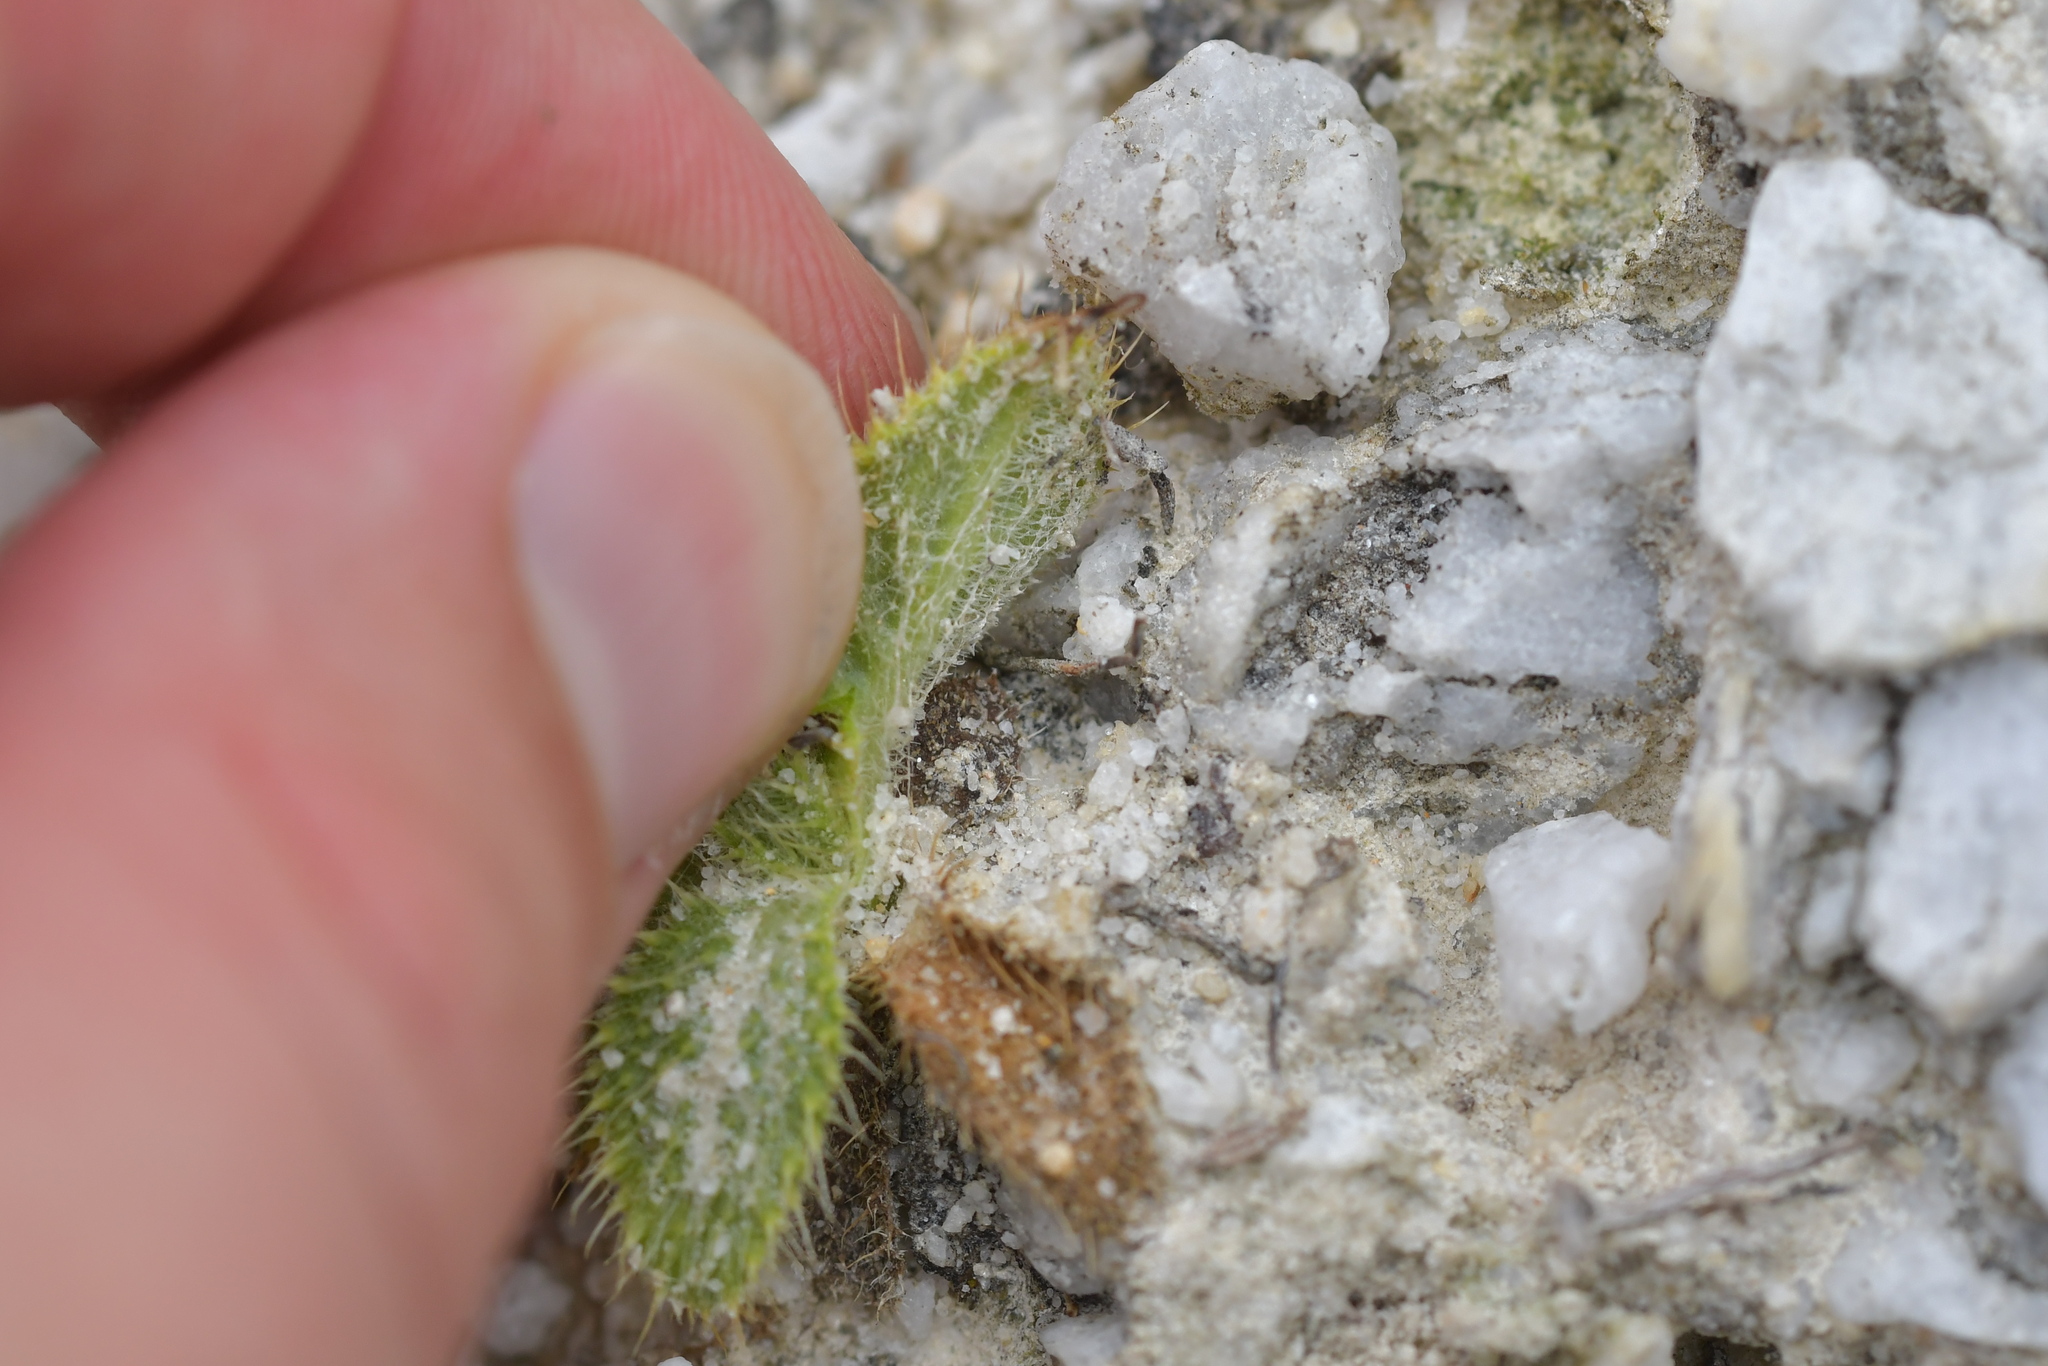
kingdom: Plantae
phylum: Tracheophyta
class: Magnoliopsida
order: Asterales
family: Asteraceae
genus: Cirsium
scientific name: Cirsium vulgare
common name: Bull thistle
